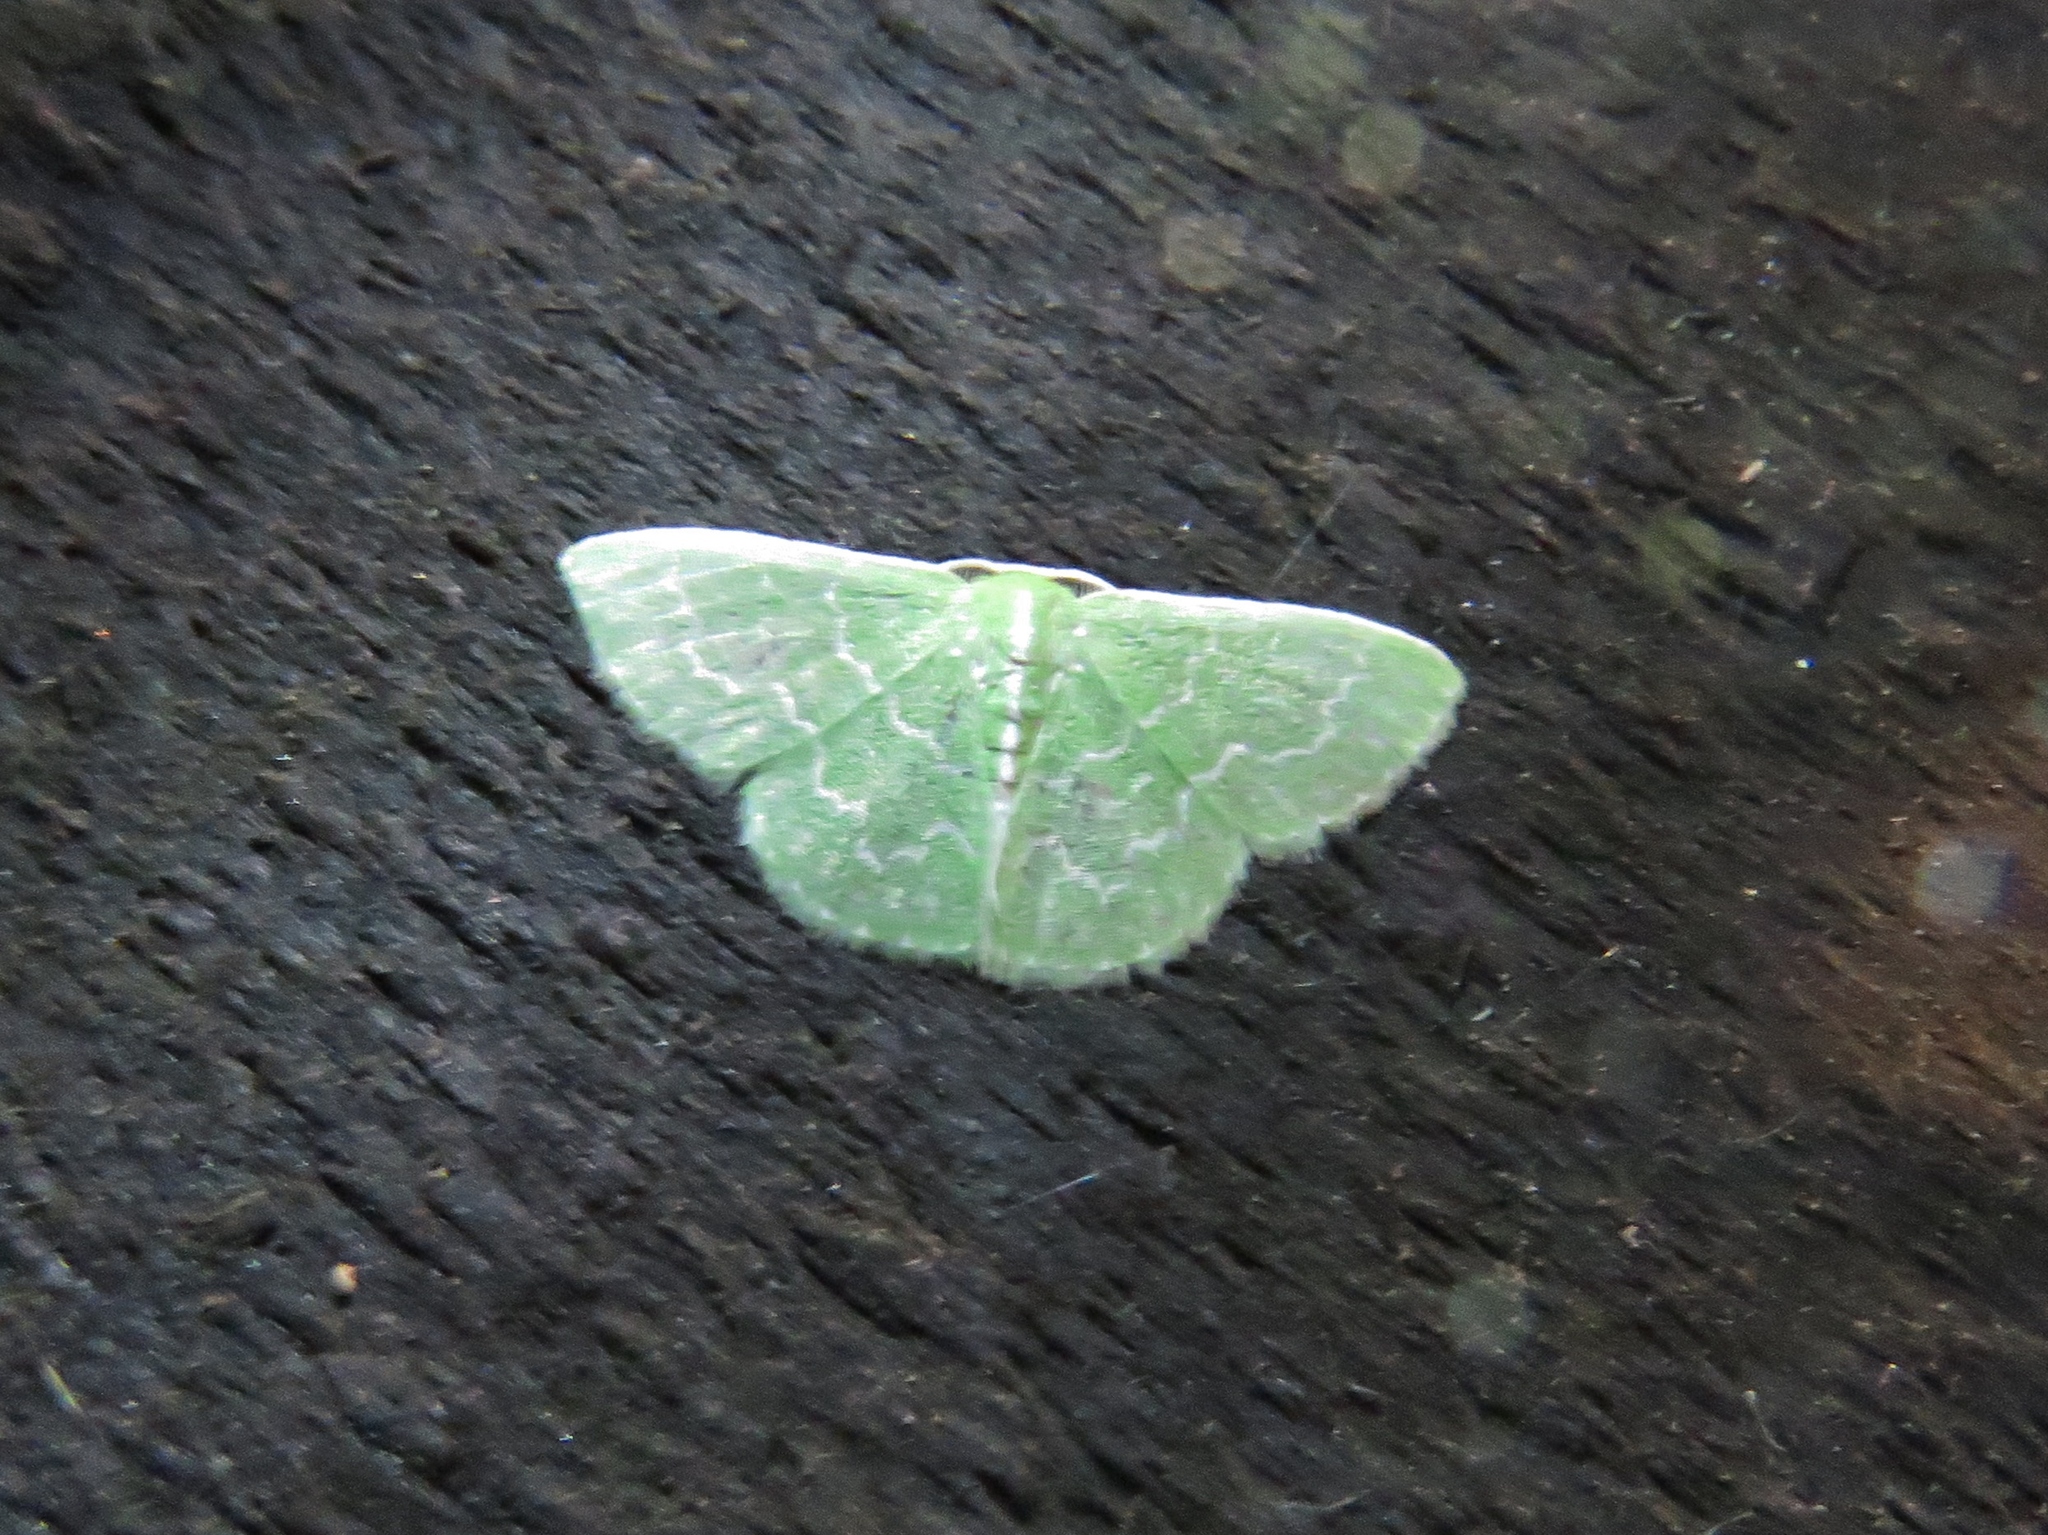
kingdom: Animalia
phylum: Arthropoda
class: Insecta
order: Lepidoptera
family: Geometridae
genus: Synchlora
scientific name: Synchlora frondaria
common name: Southern emerald
